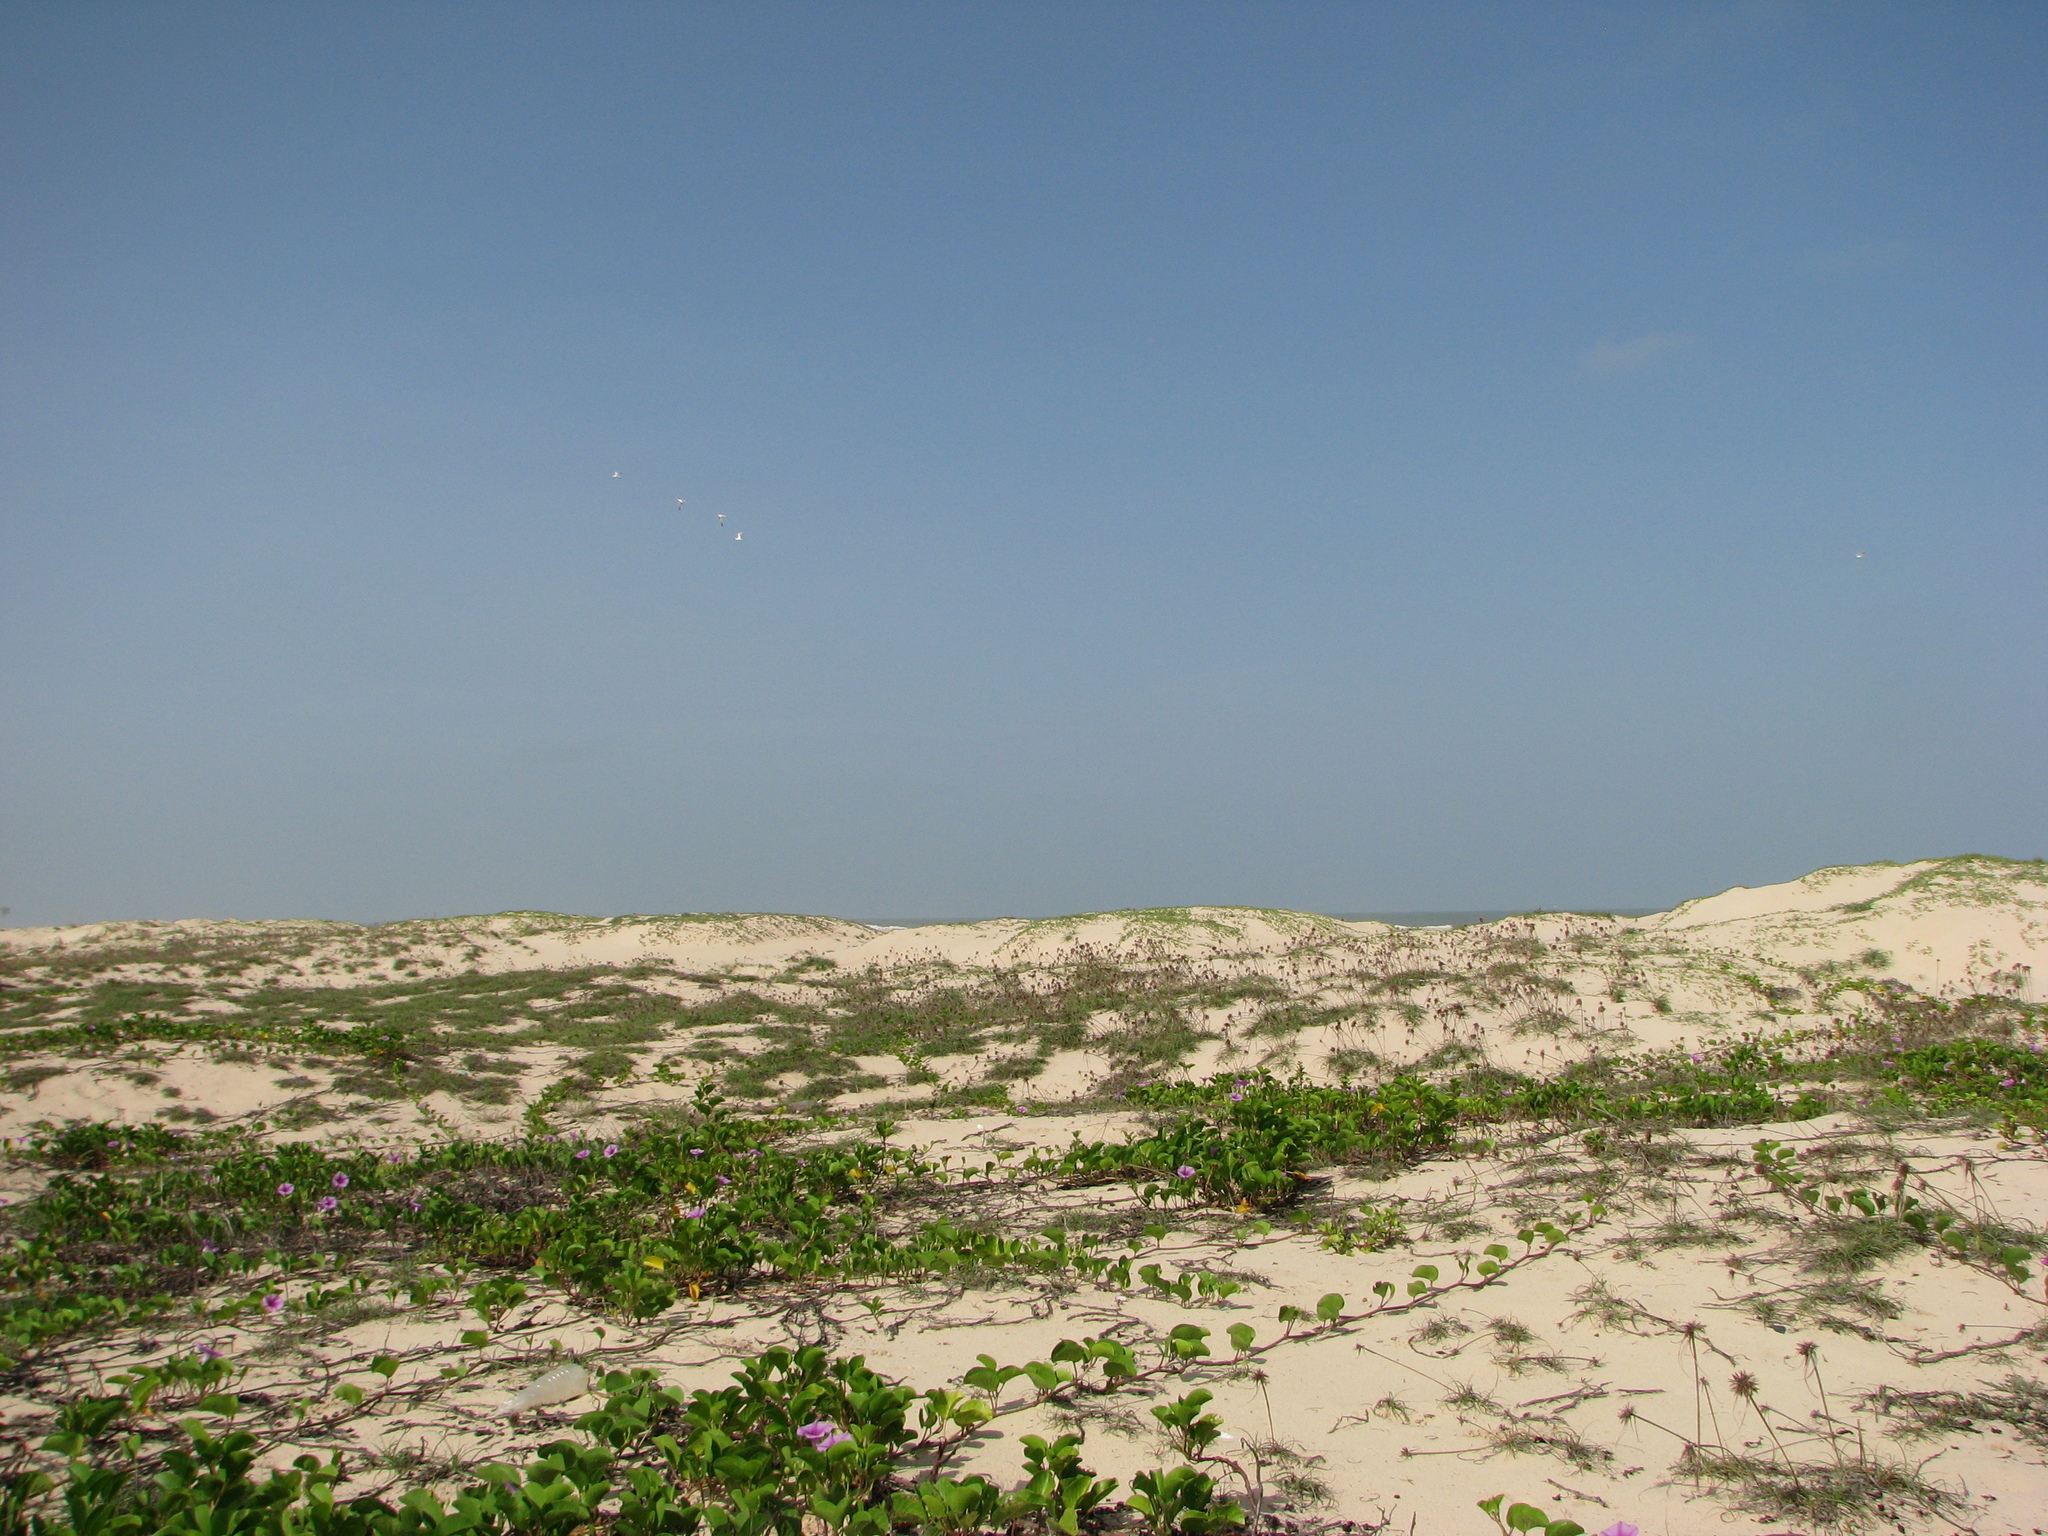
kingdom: Plantae
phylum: Tracheophyta
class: Magnoliopsida
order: Solanales
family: Convolvulaceae
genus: Ipomoea
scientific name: Ipomoea pes-caprae
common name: Beach morning glory
